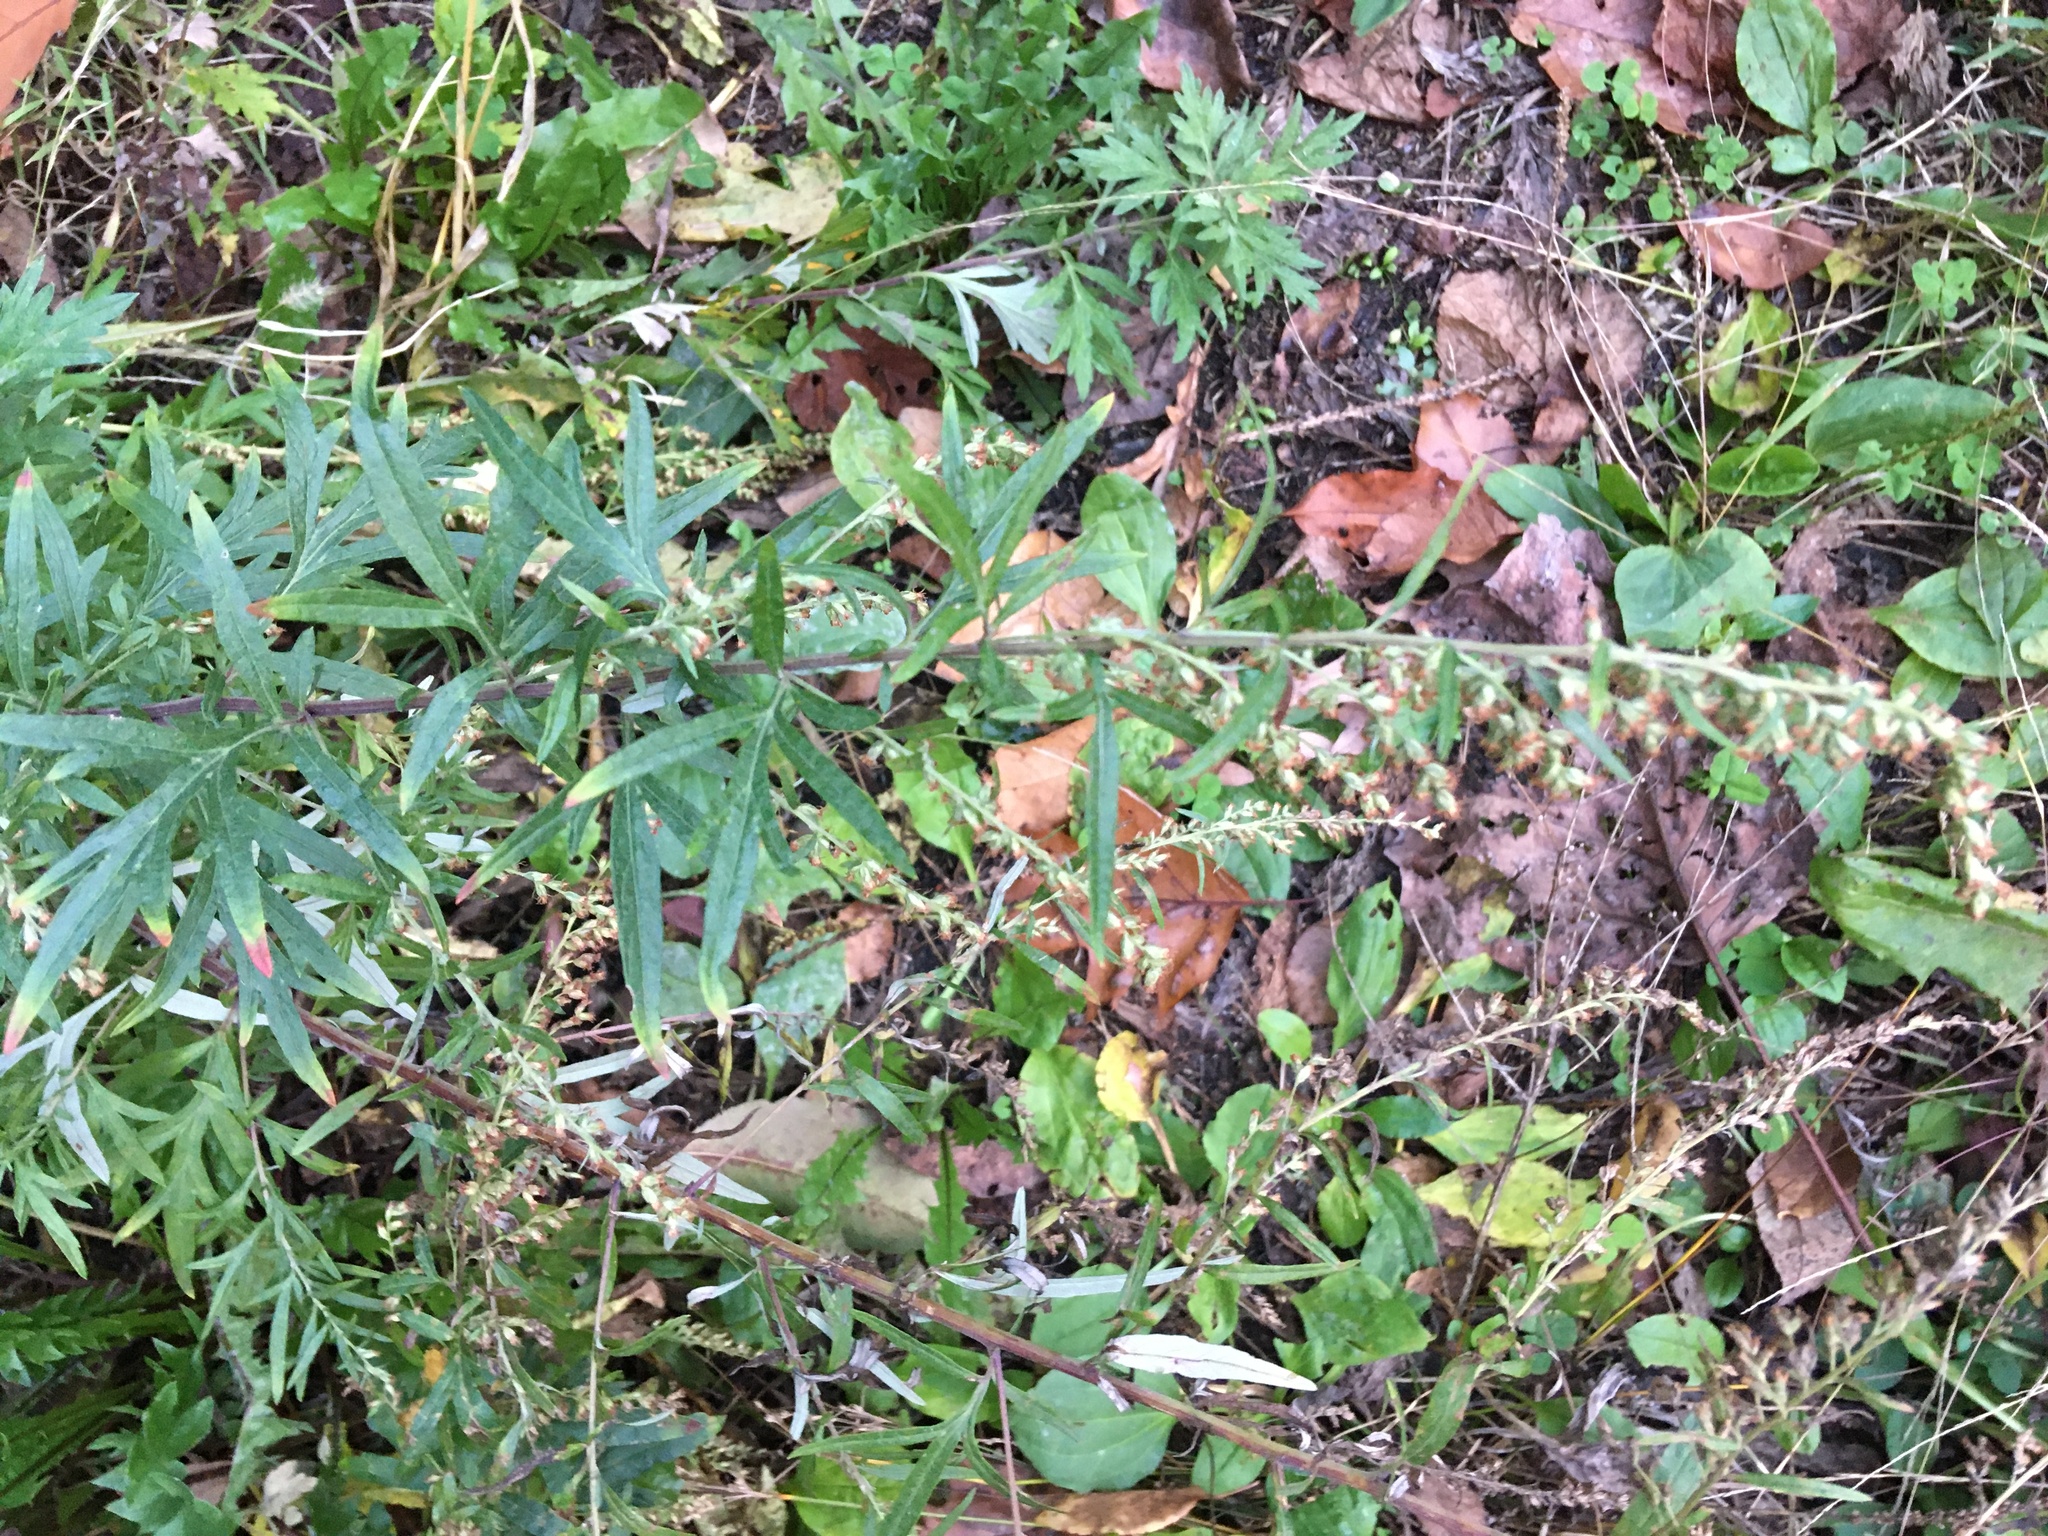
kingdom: Plantae
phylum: Tracheophyta
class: Magnoliopsida
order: Asterales
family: Asteraceae
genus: Artemisia
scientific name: Artemisia vulgaris
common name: Mugwort
